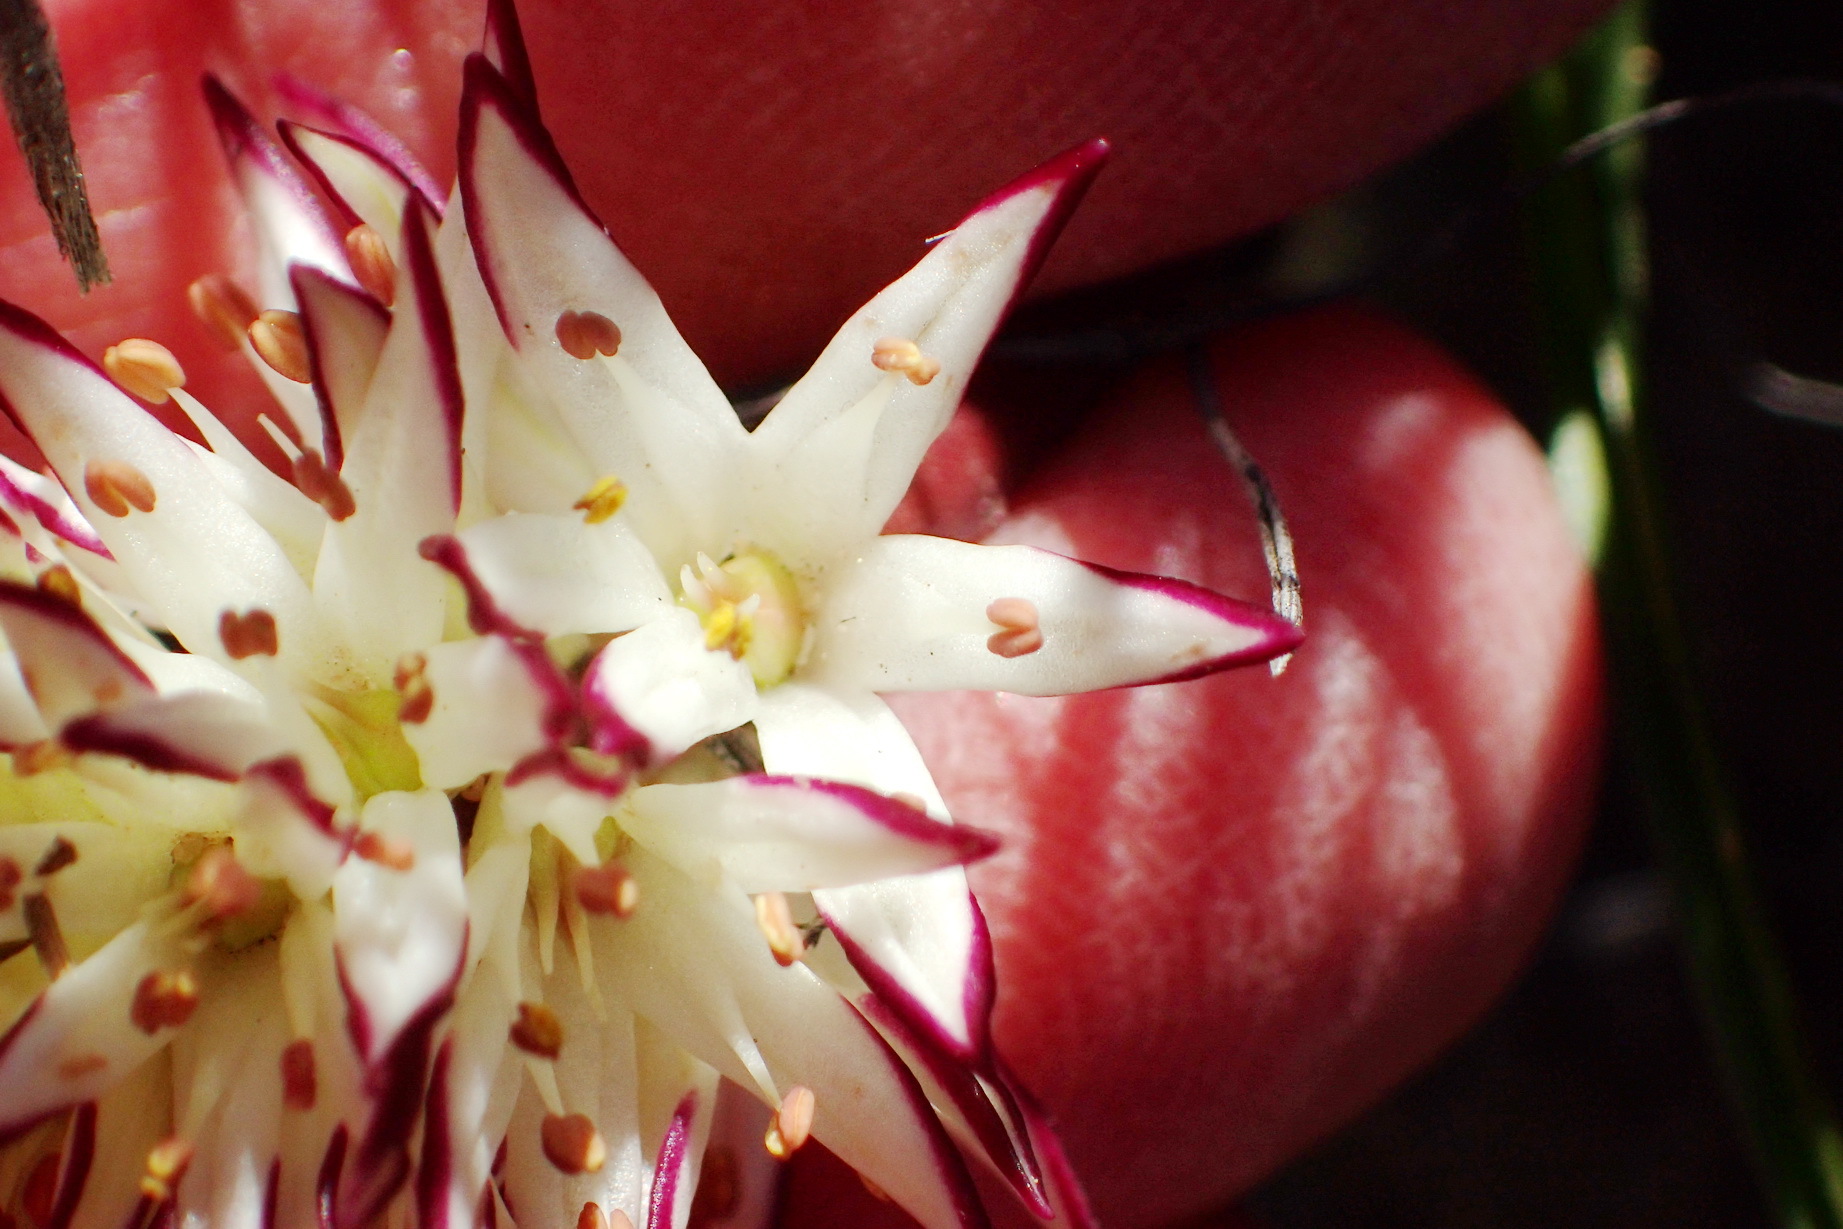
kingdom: Plantae
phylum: Tracheophyta
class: Liliopsida
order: Liliales
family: Colchicaceae
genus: Wurmbea
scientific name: Wurmbea spicata
